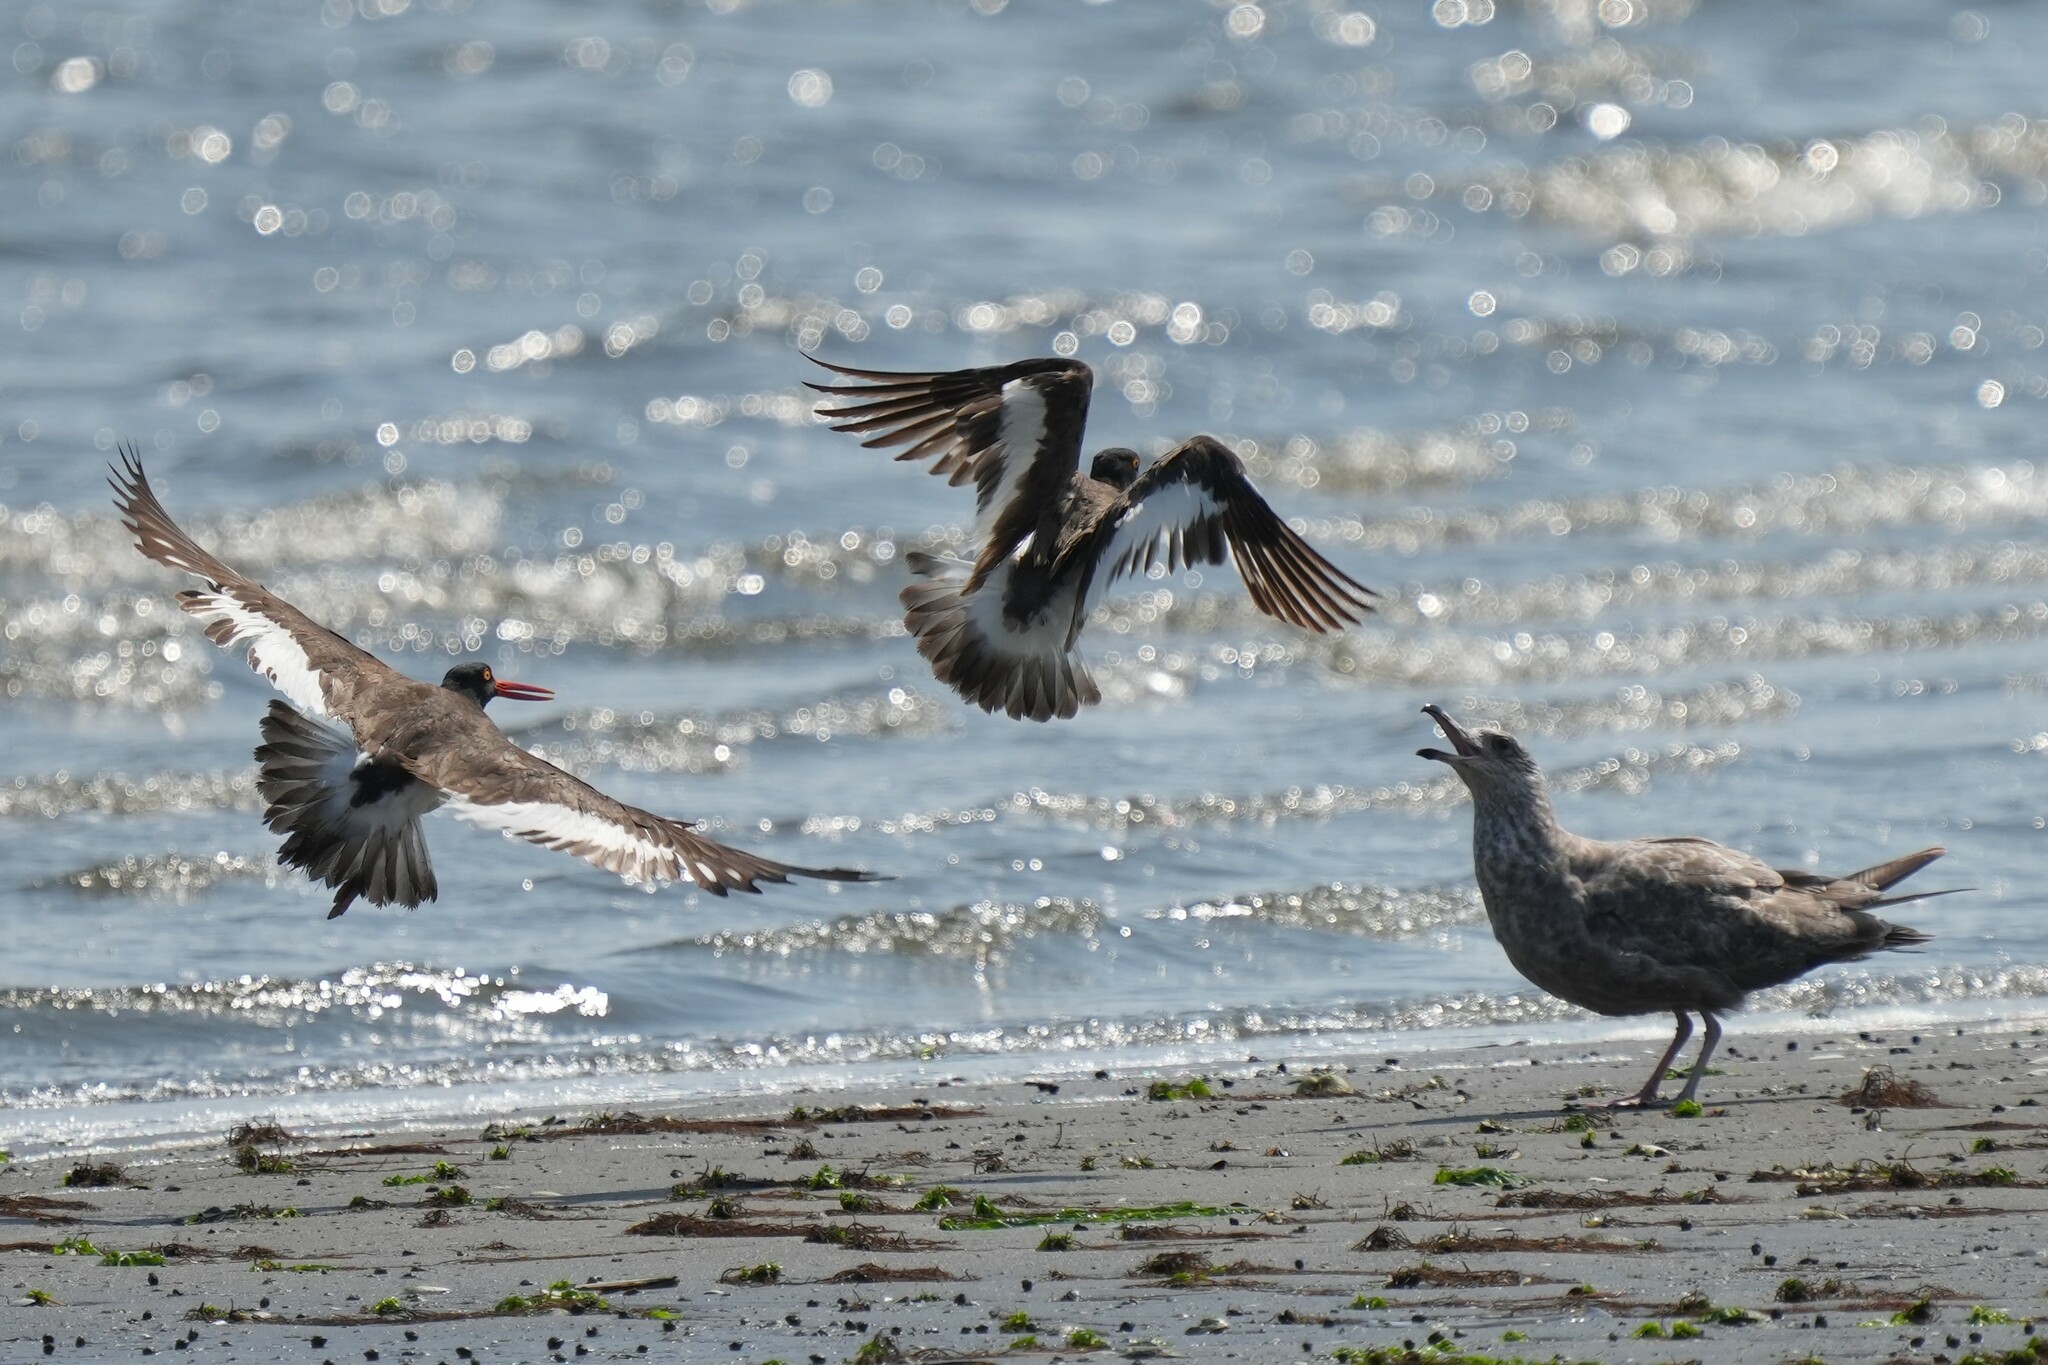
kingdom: Animalia
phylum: Chordata
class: Aves
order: Charadriiformes
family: Haematopodidae
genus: Haematopus
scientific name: Haematopus palliatus
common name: American oystercatcher
